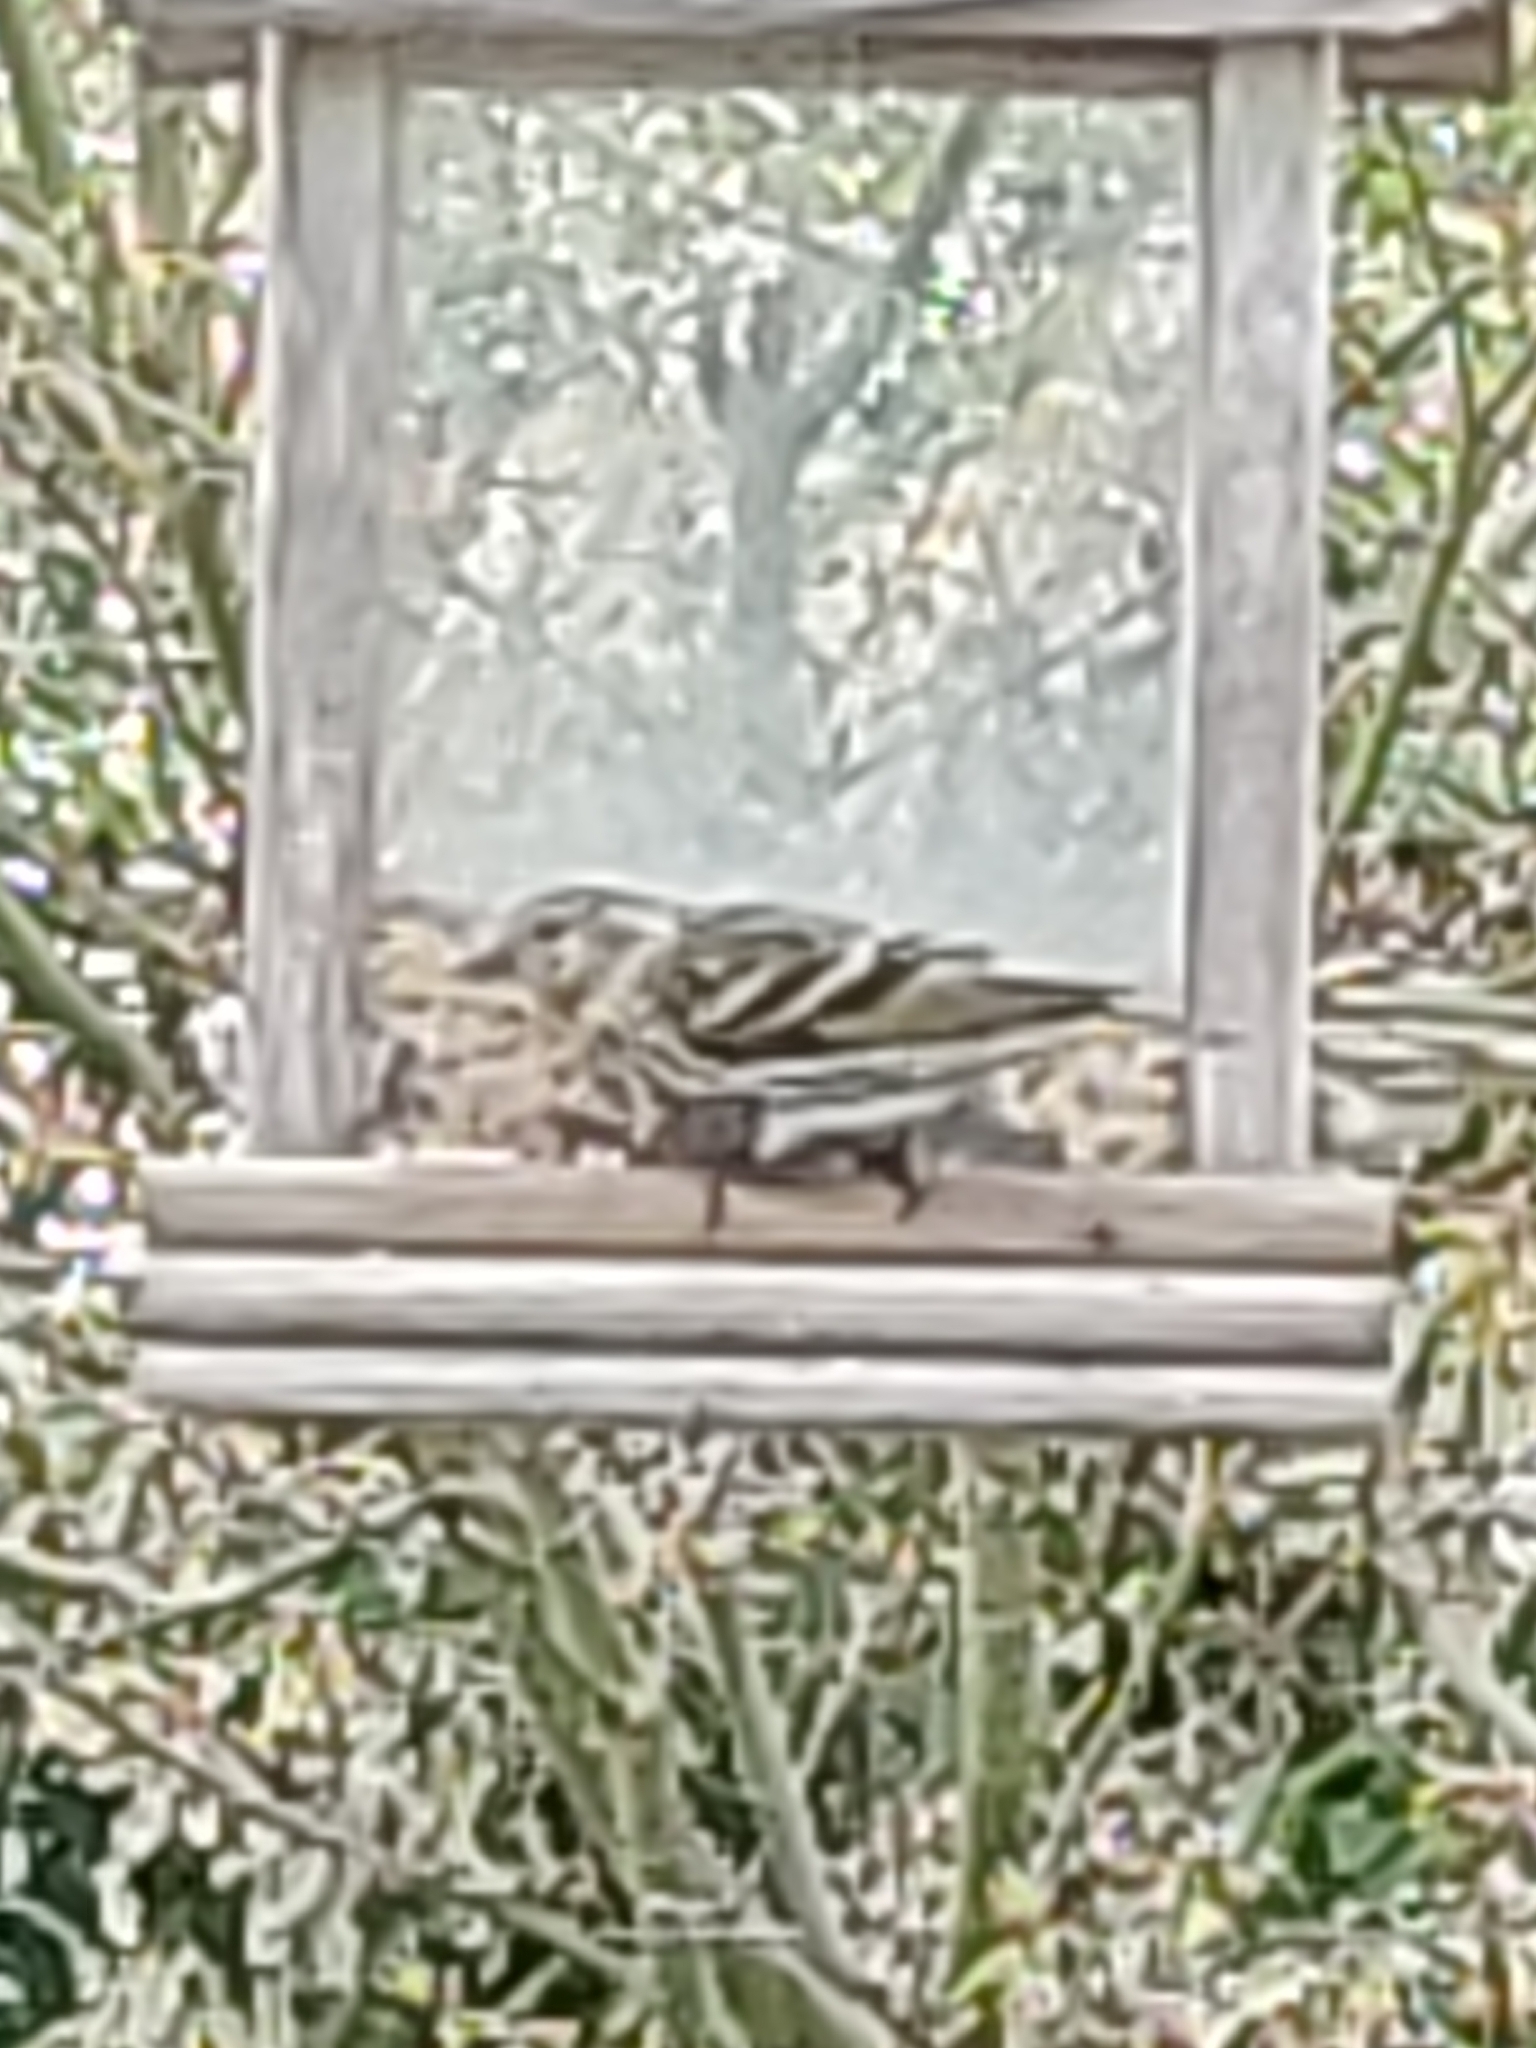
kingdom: Animalia
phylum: Chordata
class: Aves
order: Passeriformes
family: Fringillidae
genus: Spinus
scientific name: Spinus pinus
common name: Pine siskin
